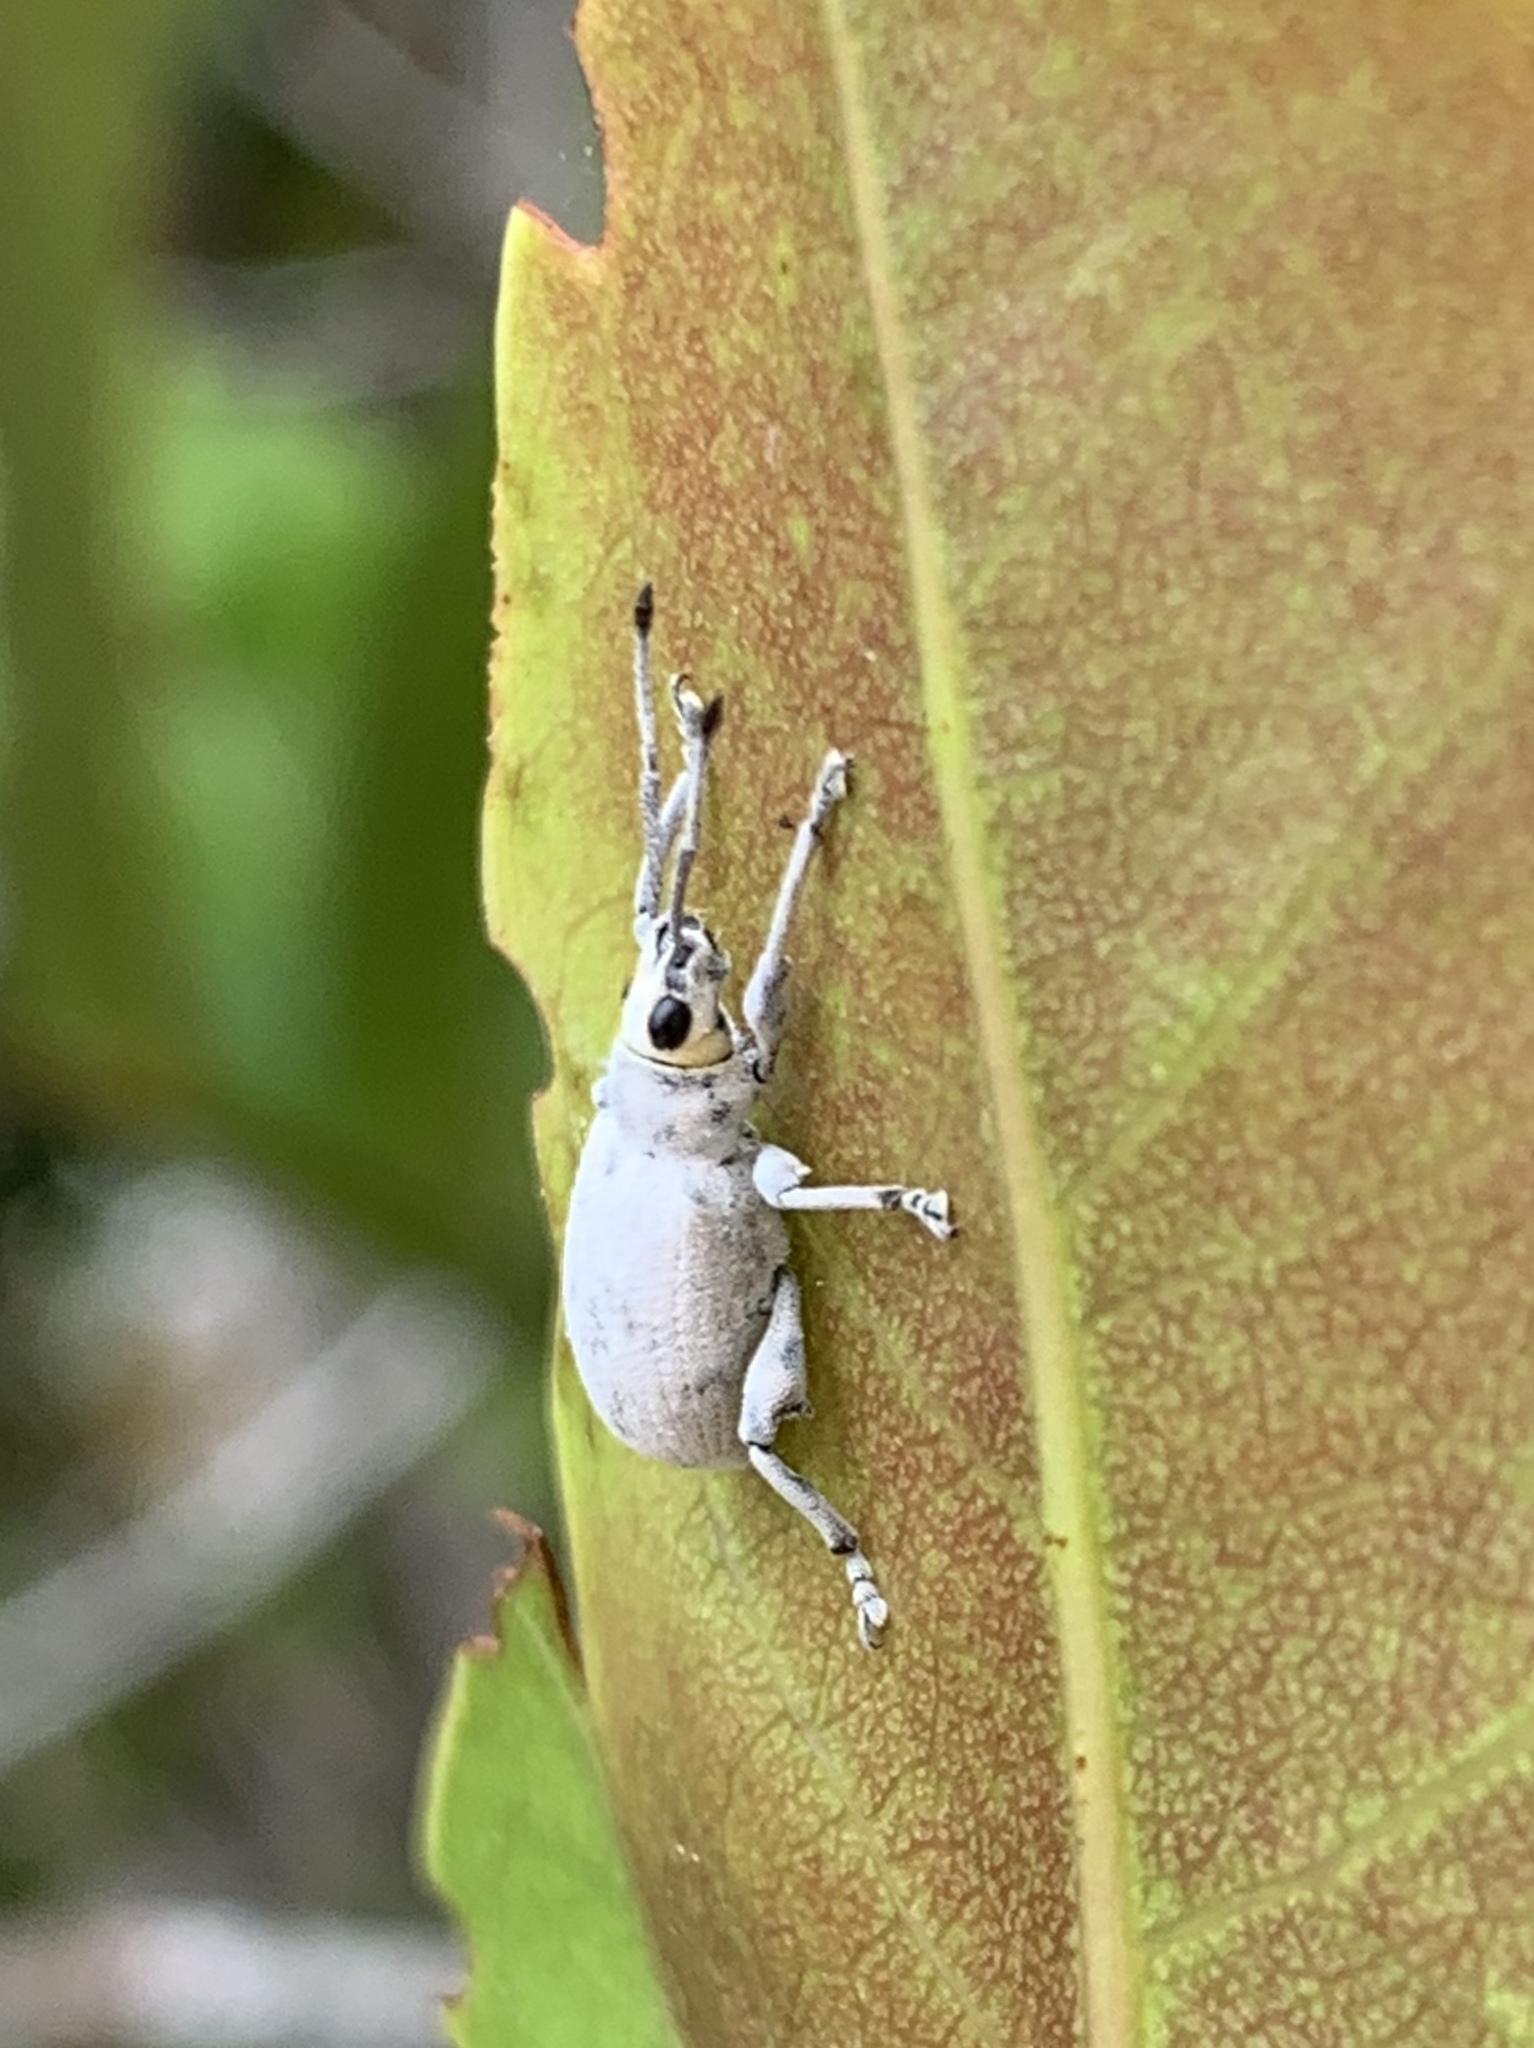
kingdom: Animalia
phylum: Arthropoda
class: Insecta
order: Coleoptera
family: Curculionidae
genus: Myllocerus
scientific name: Myllocerus undecimpustulatus
